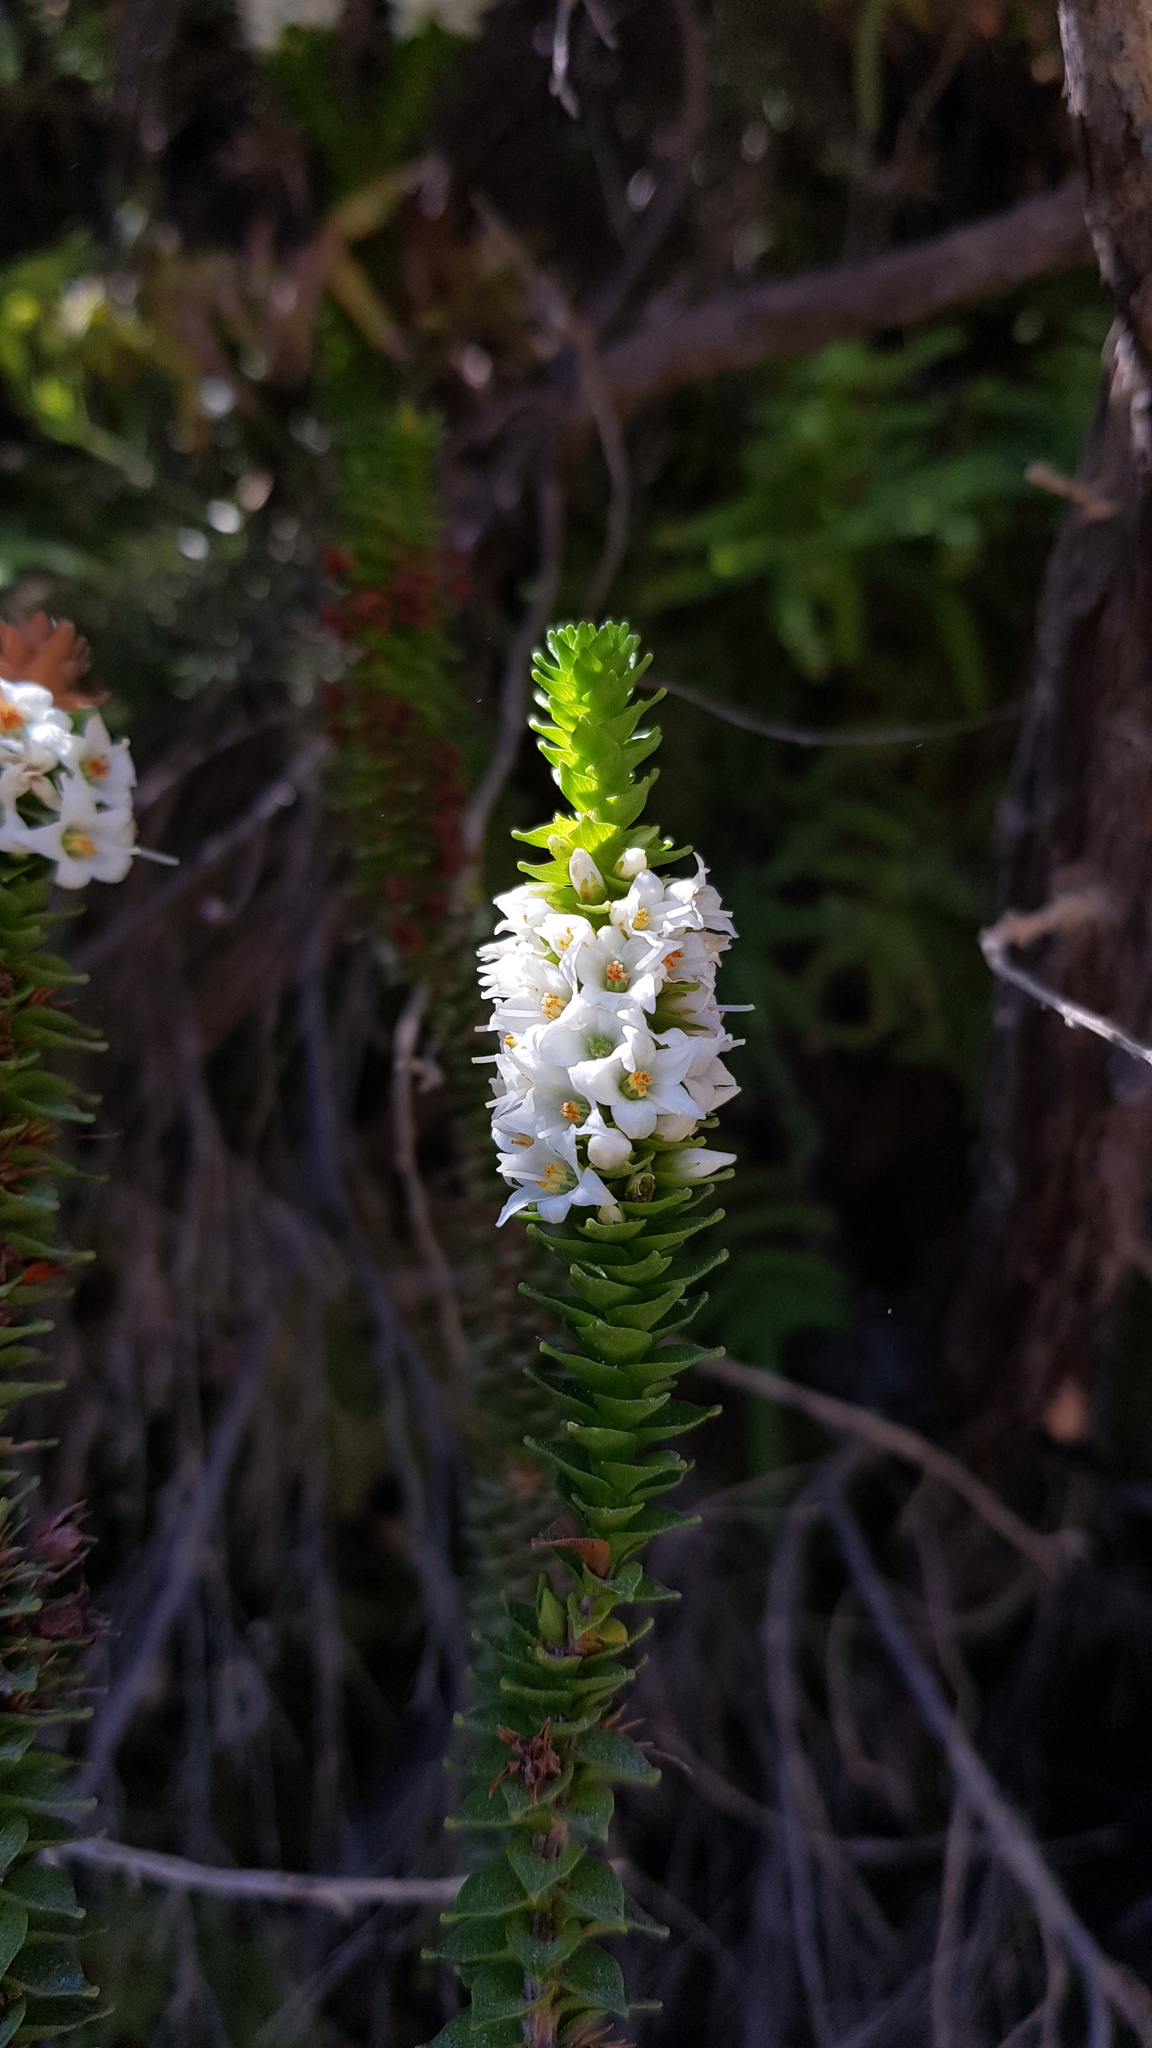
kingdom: Plantae
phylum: Tracheophyta
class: Magnoliopsida
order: Ericales
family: Ericaceae
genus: Epacris
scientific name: Epacris apiculata
